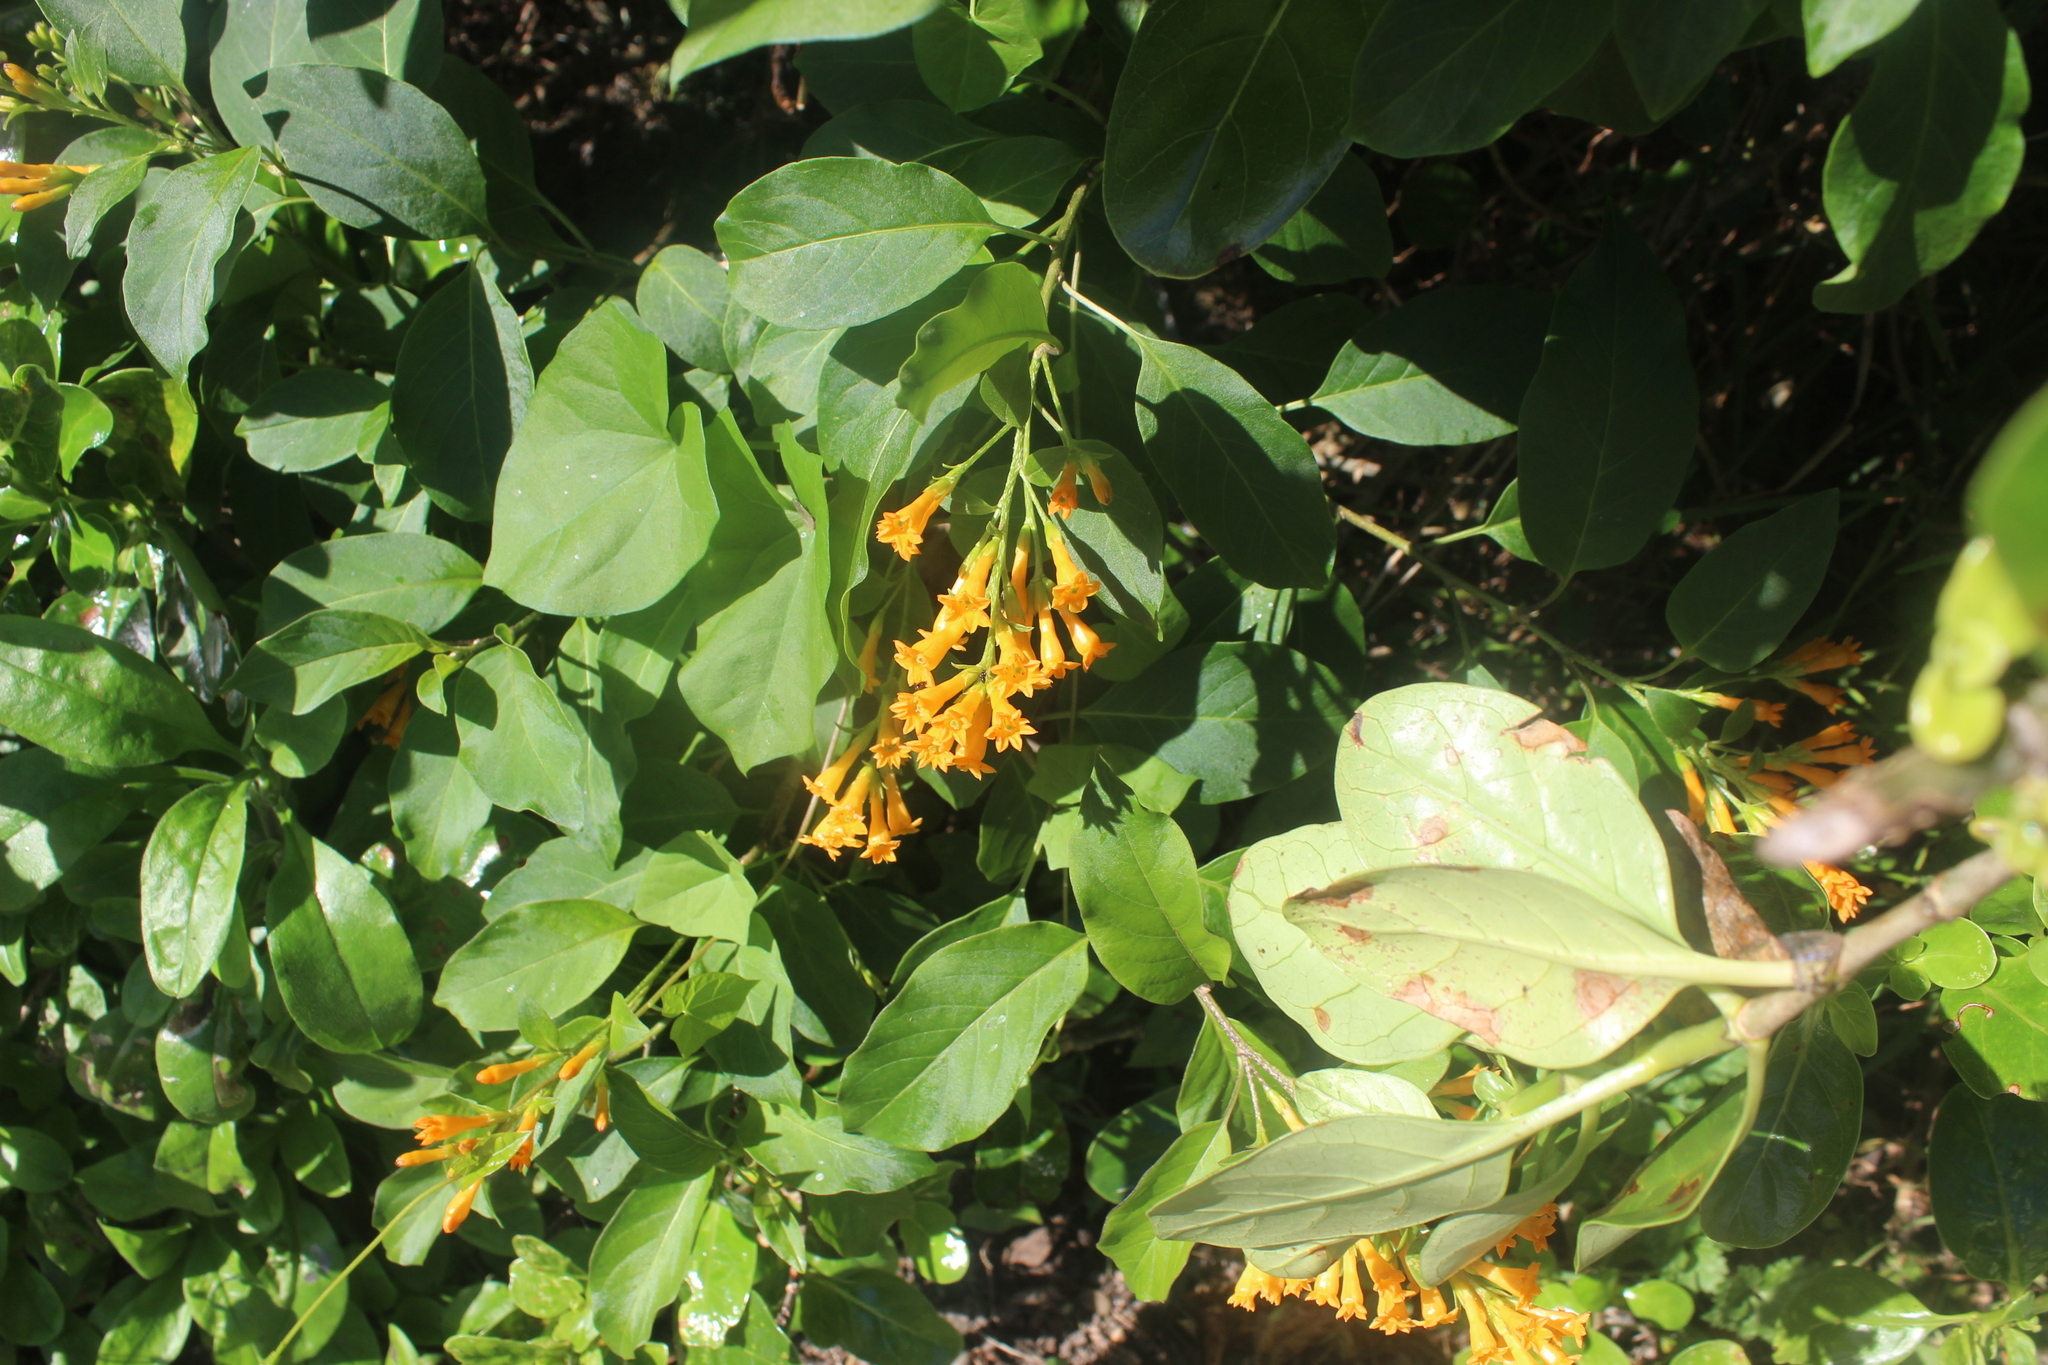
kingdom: Plantae
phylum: Tracheophyta
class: Magnoliopsida
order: Solanales
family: Solanaceae
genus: Cestrum
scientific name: Cestrum aurantiacum
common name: Orange cestrum
